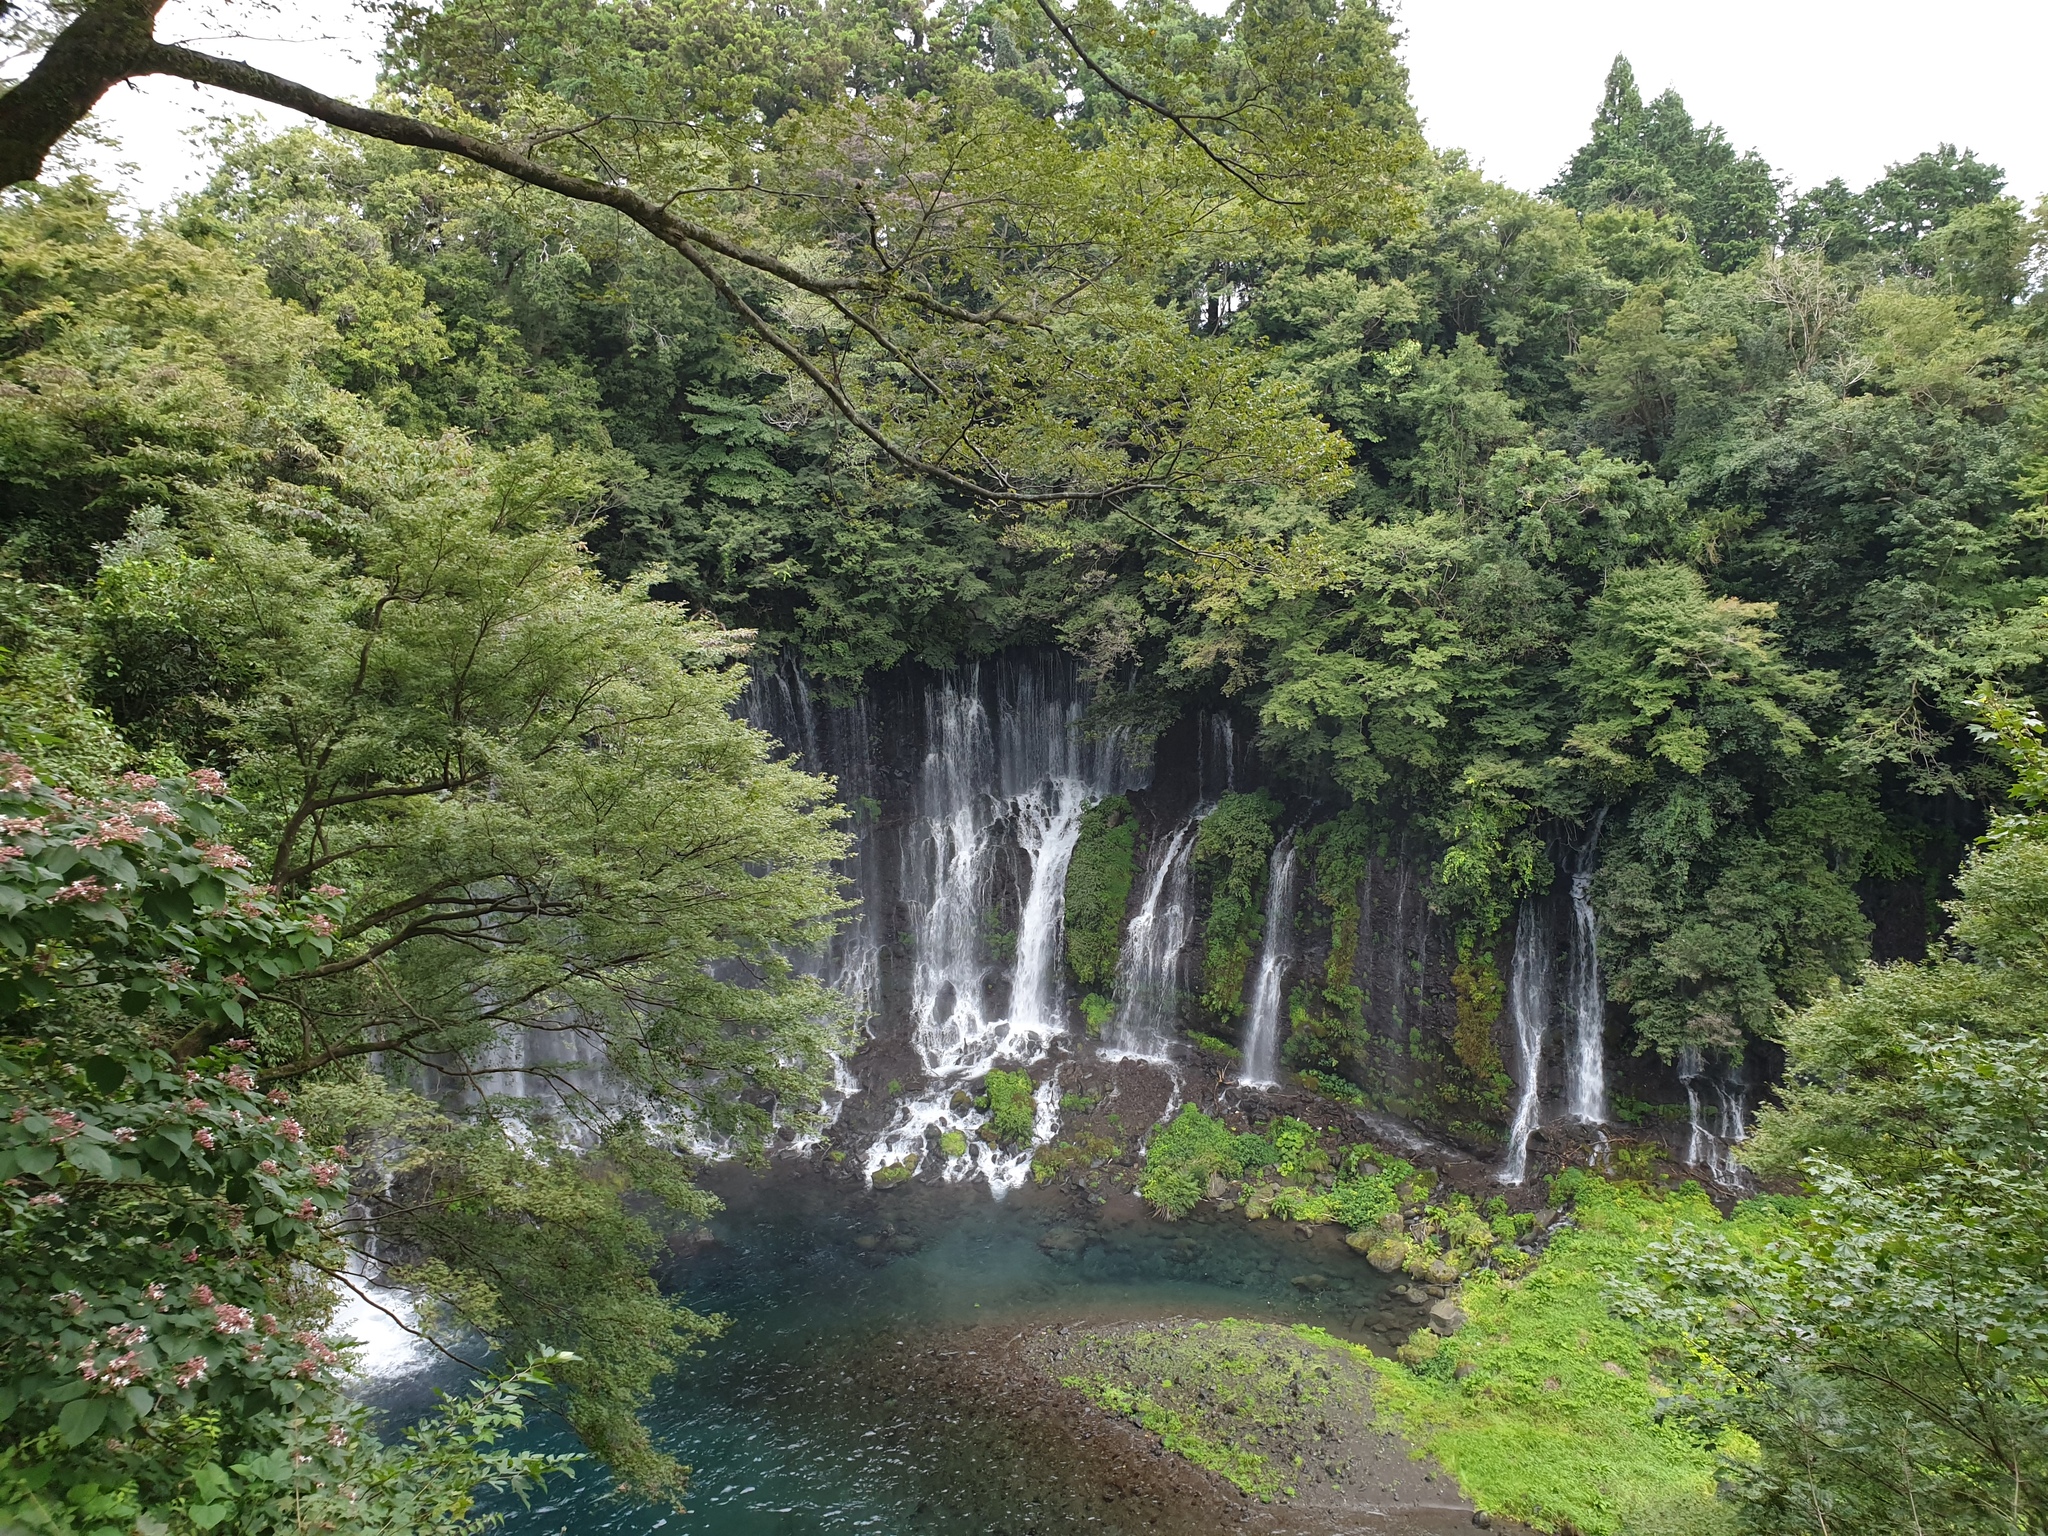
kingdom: Plantae
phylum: Tracheophyta
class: Pinopsida
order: Pinales
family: Taxaceae
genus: Torreya
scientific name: Torreya nucifera
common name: Japanese nutmeg tree
